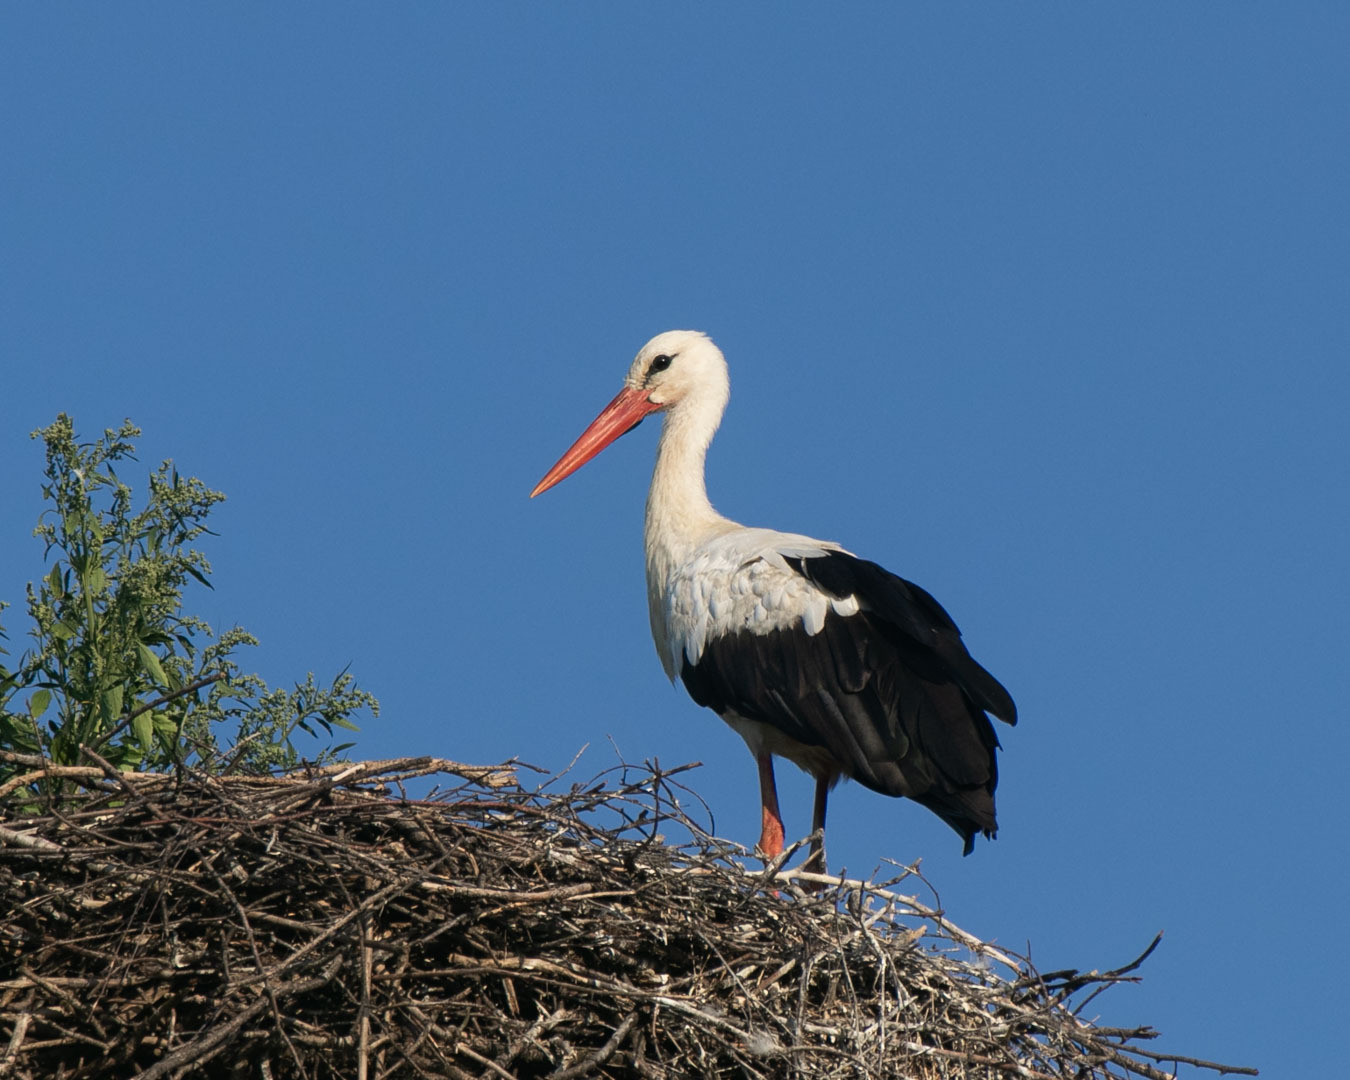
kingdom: Animalia
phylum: Chordata
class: Aves
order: Ciconiiformes
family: Ciconiidae
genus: Ciconia
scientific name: Ciconia ciconia
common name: White stork
